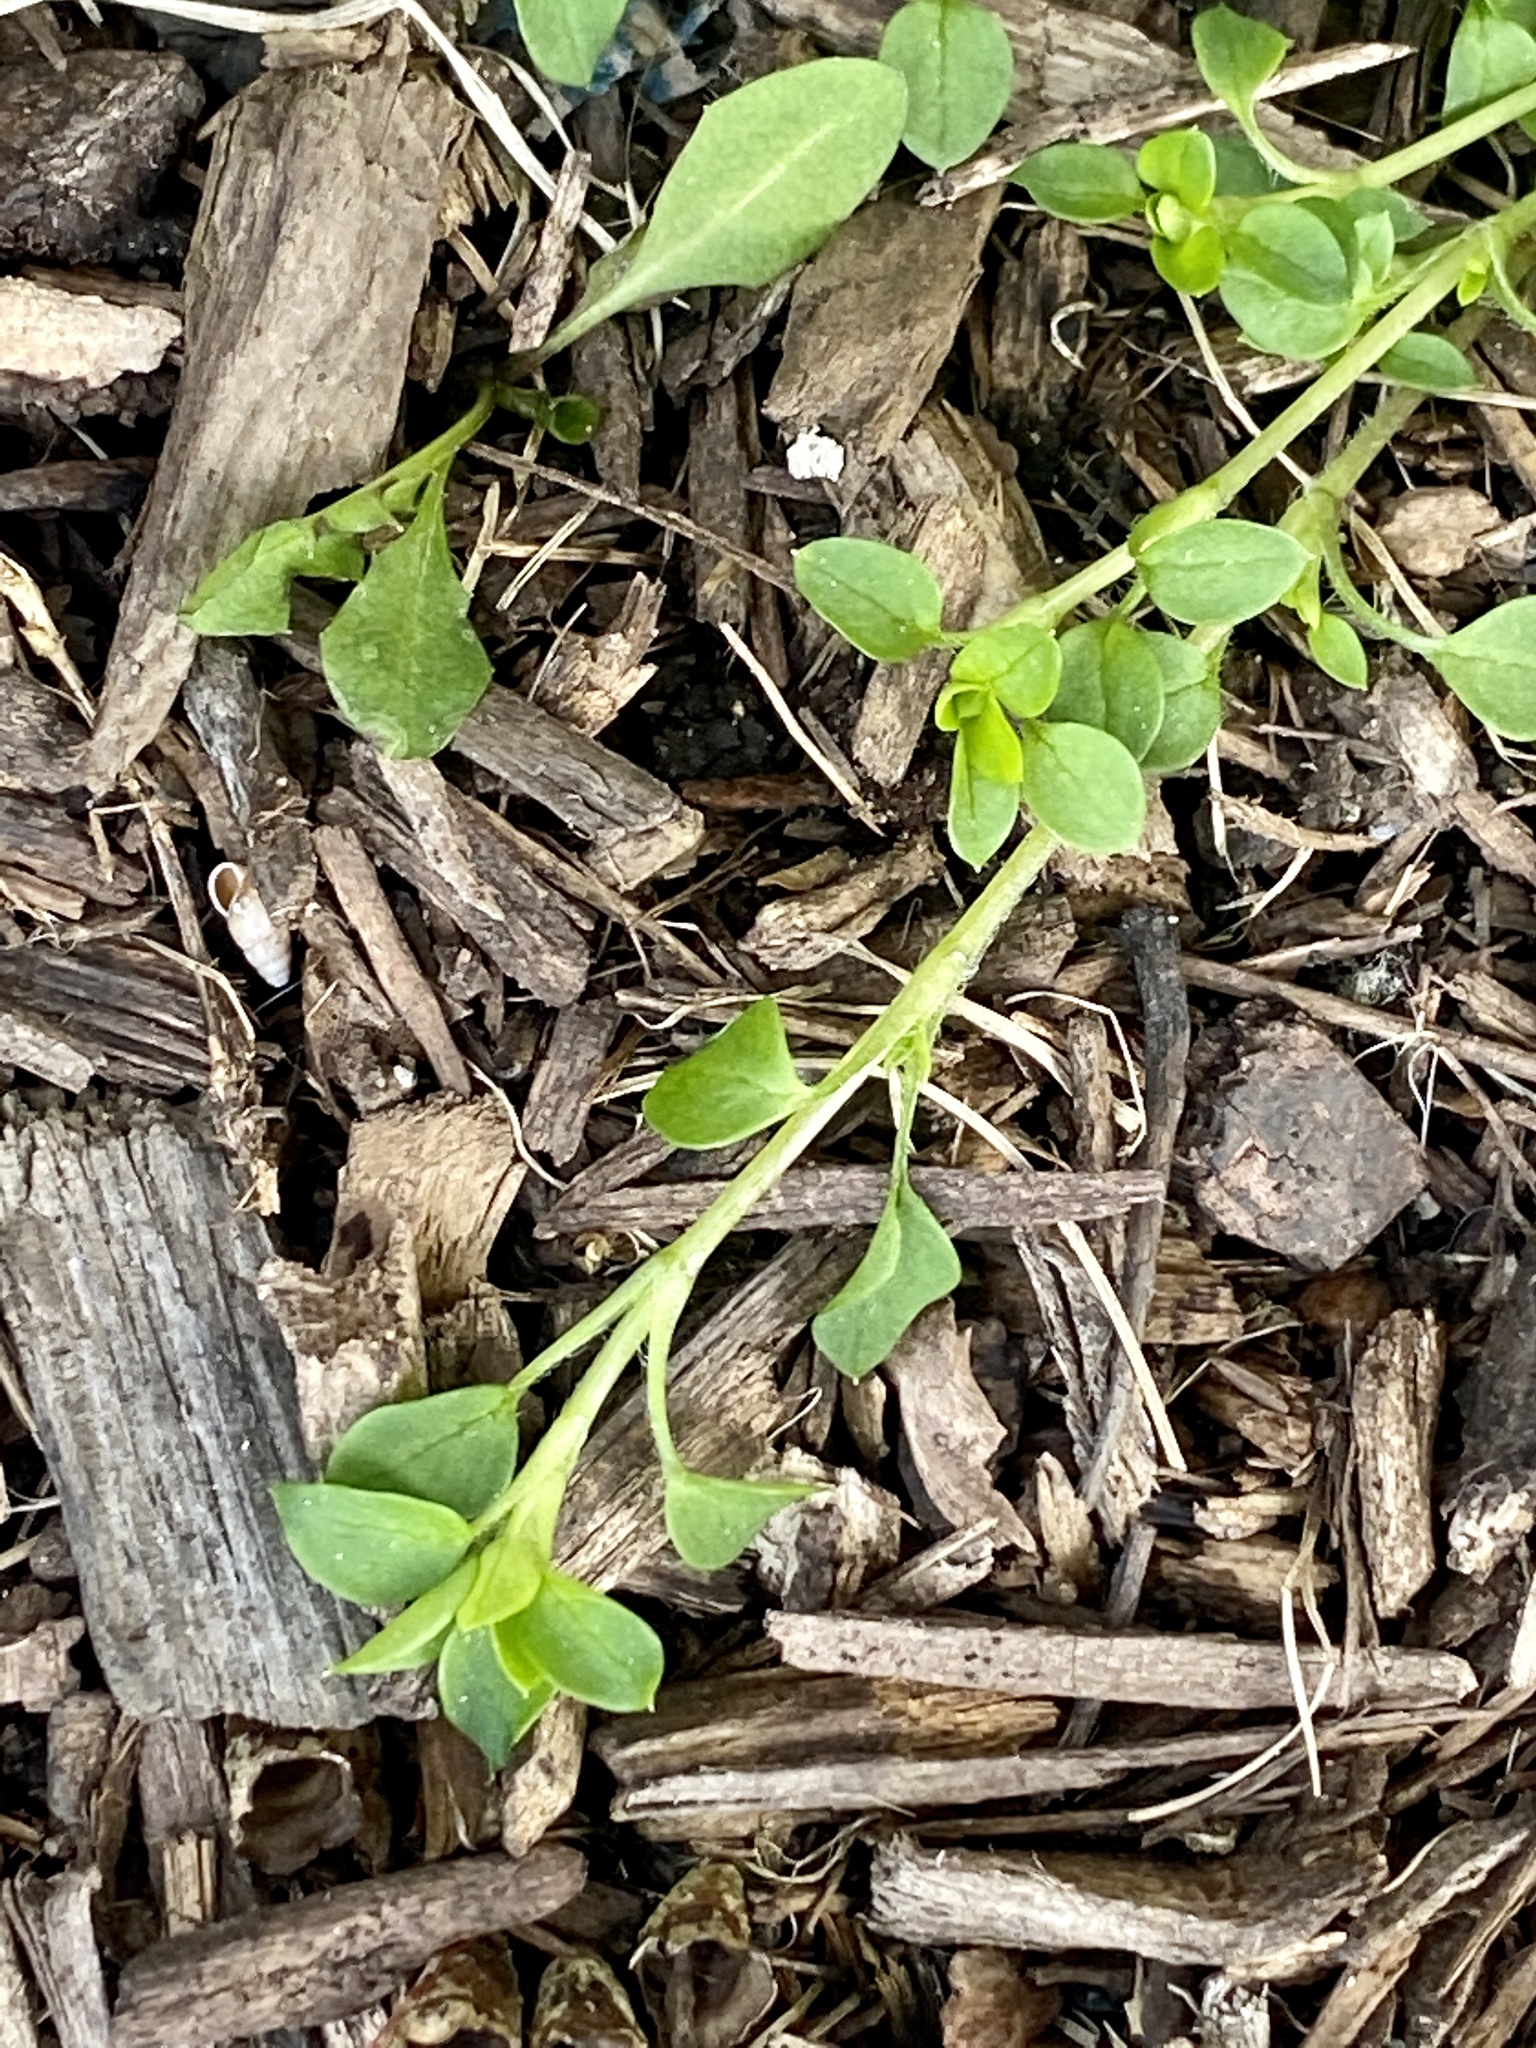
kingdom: Plantae
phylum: Tracheophyta
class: Magnoliopsida
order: Caryophyllales
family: Caryophyllaceae
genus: Stellaria
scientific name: Stellaria media
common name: Common chickweed
